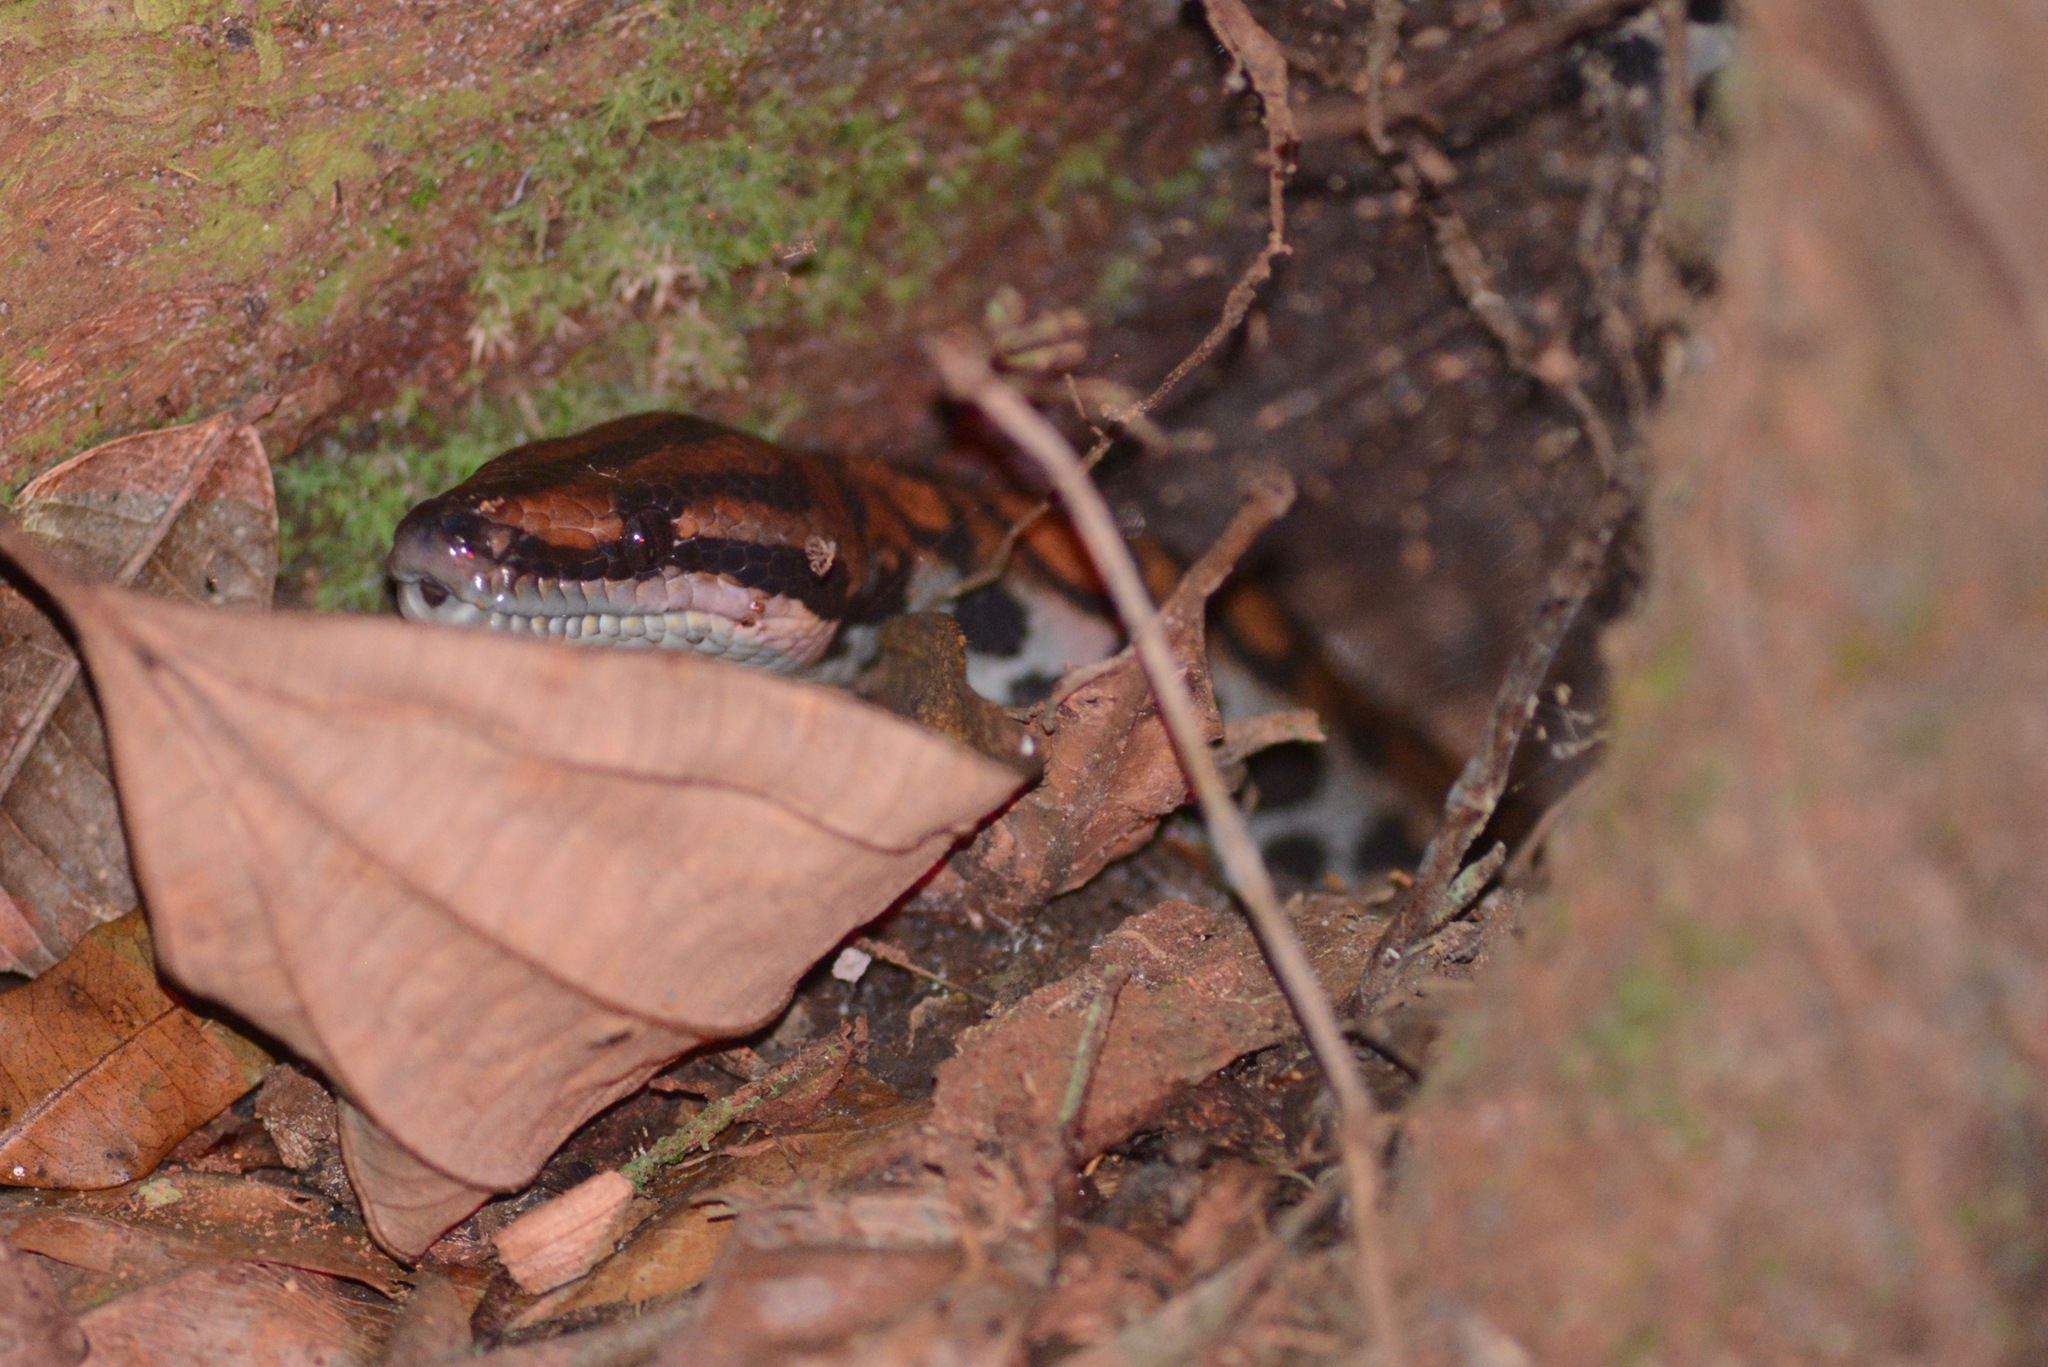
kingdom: Animalia
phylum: Chordata
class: Squamata
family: Boidae
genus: Epicrates
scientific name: Epicrates cenchria
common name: Rainbow boa
